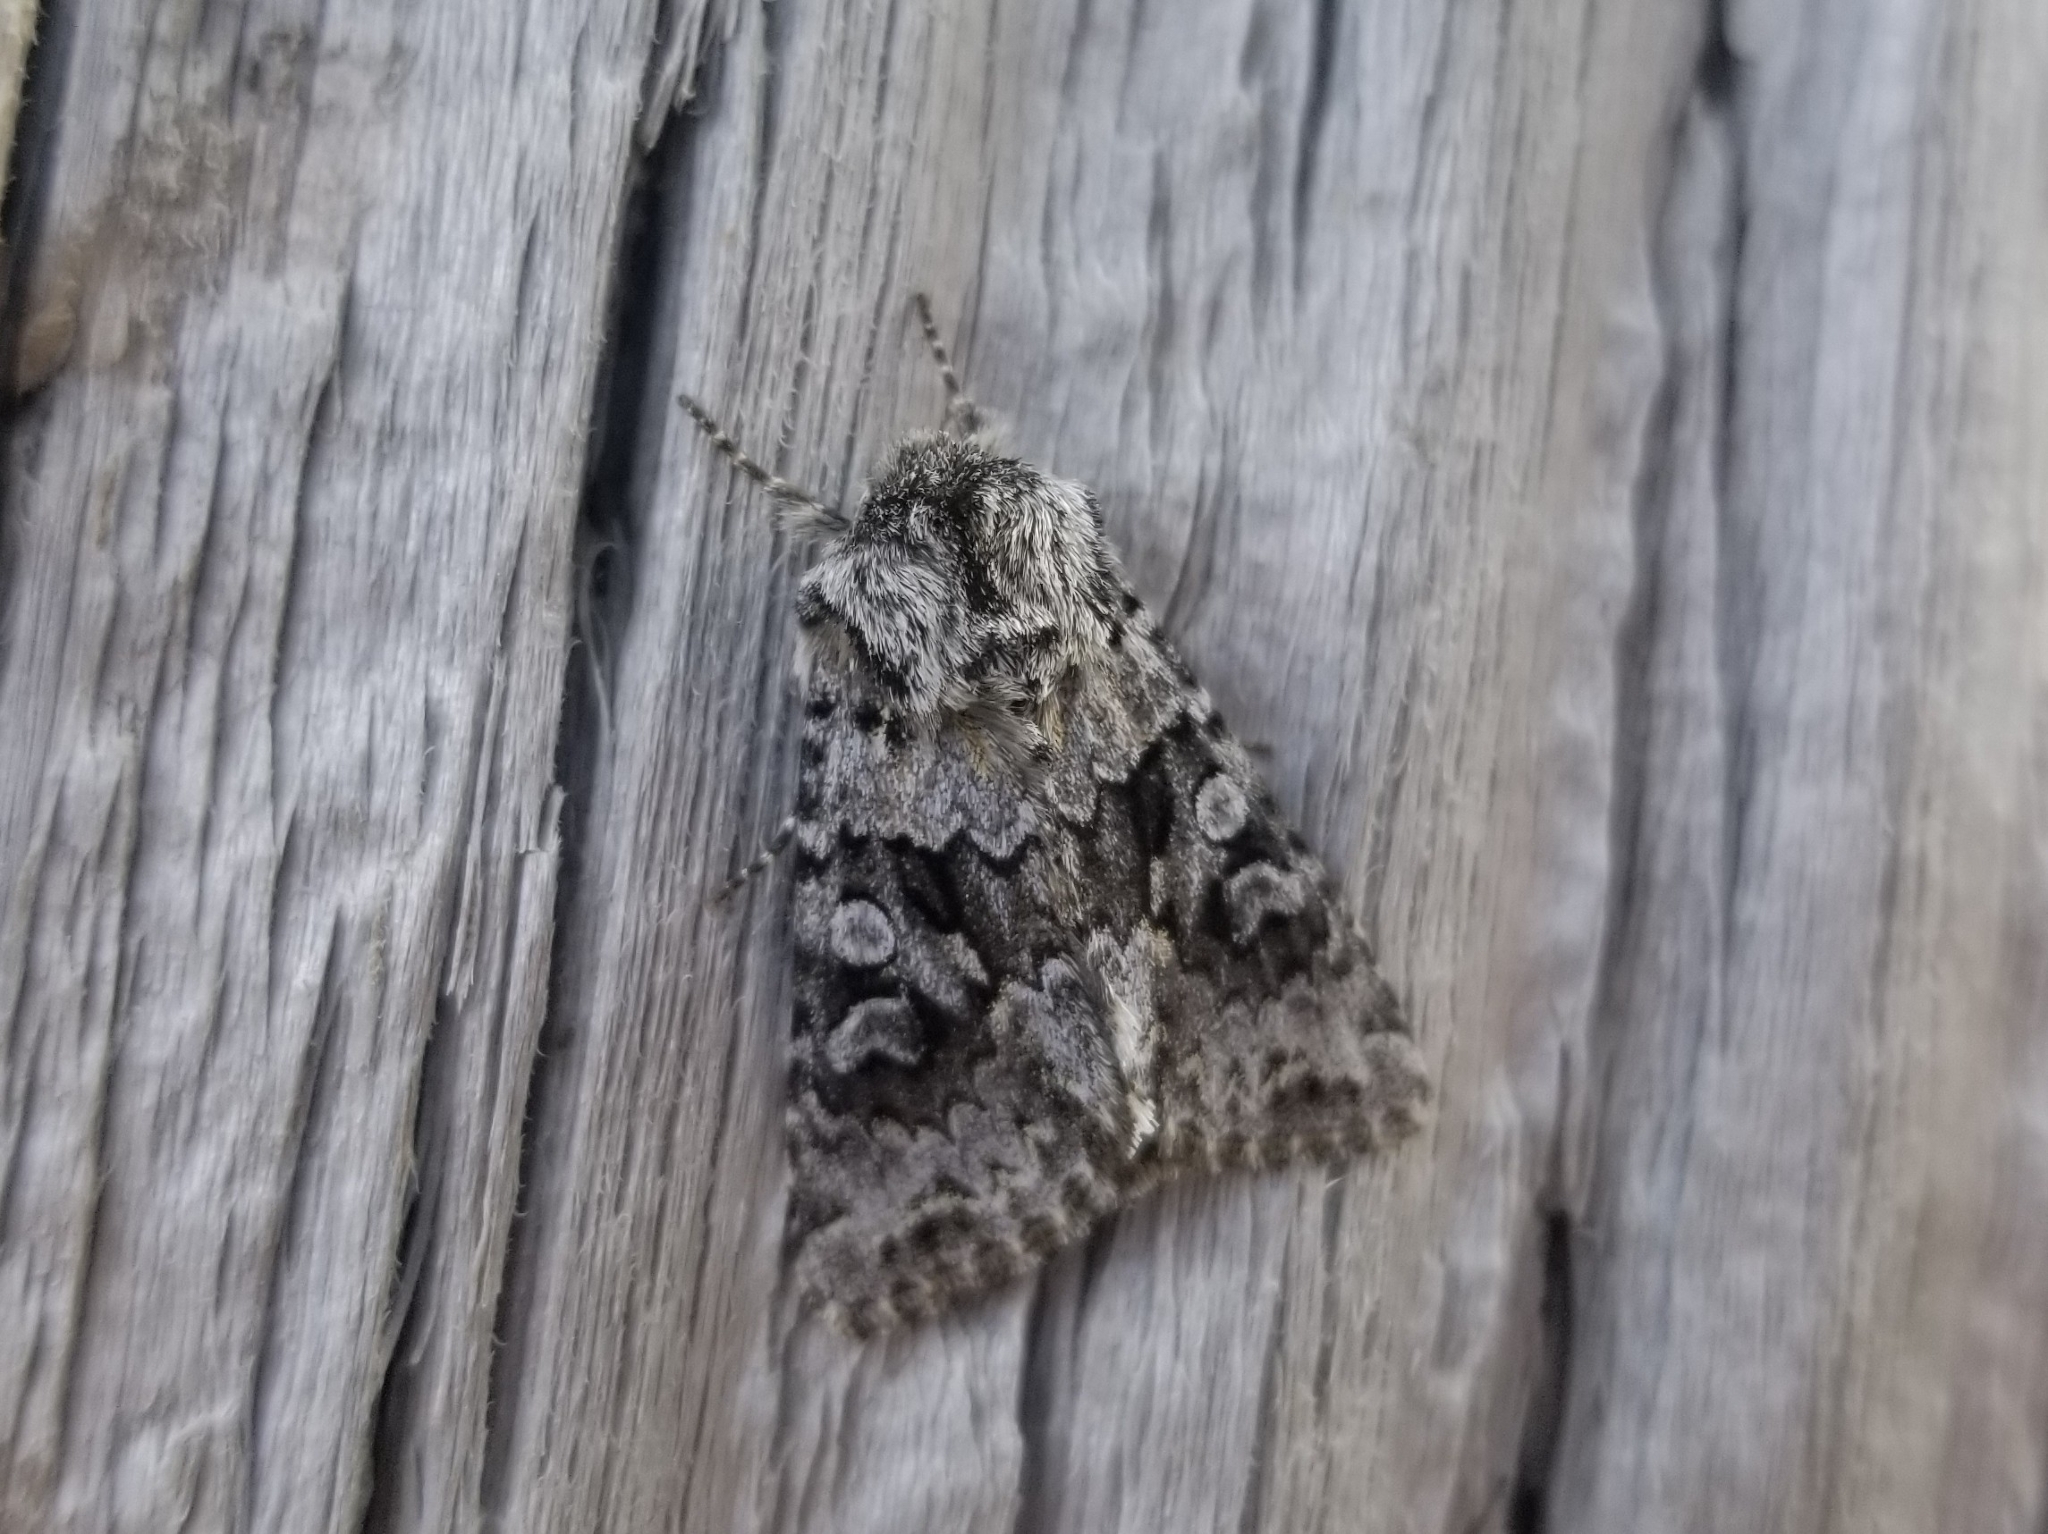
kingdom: Animalia
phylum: Arthropoda
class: Insecta
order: Lepidoptera
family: Noctuidae
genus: Hada
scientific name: Hada sutrina
